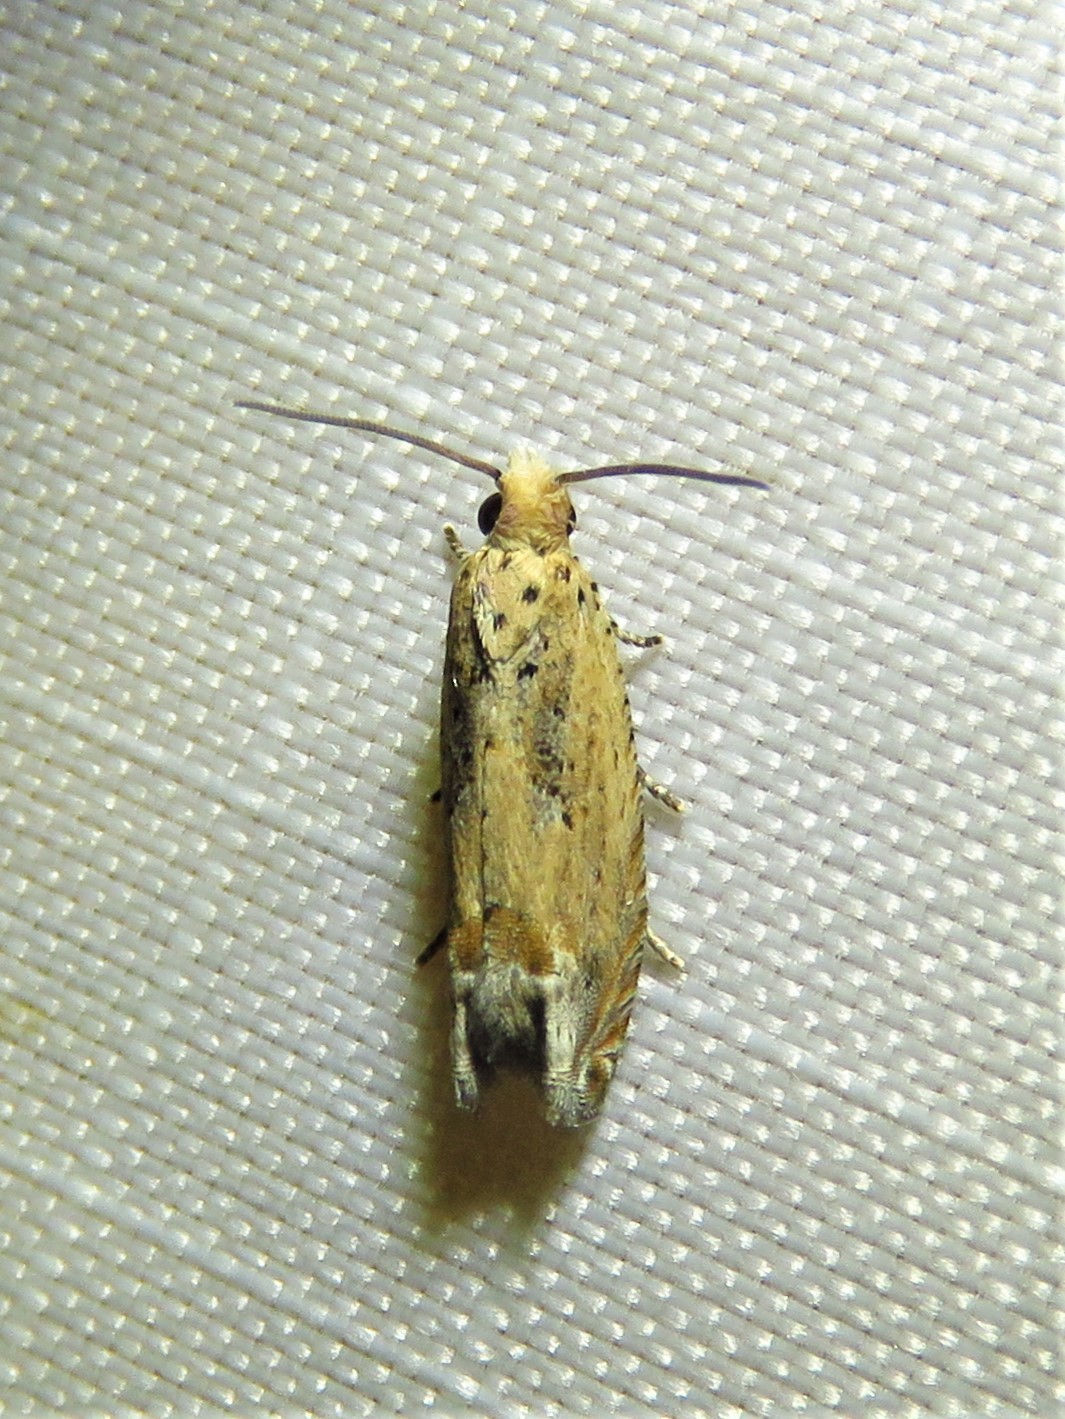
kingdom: Animalia
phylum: Arthropoda
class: Insecta
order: Lepidoptera
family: Tortricidae
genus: Epiblema
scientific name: Epiblema chromata
